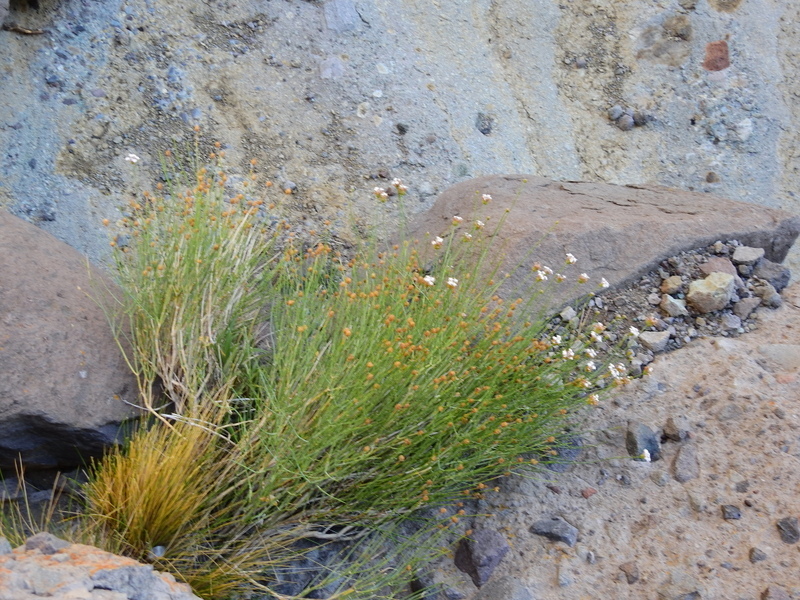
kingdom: Plantae
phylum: Tracheophyta
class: Magnoliopsida
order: Lamiales
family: Verbenaceae
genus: Junellia
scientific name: Junellia spathulata
